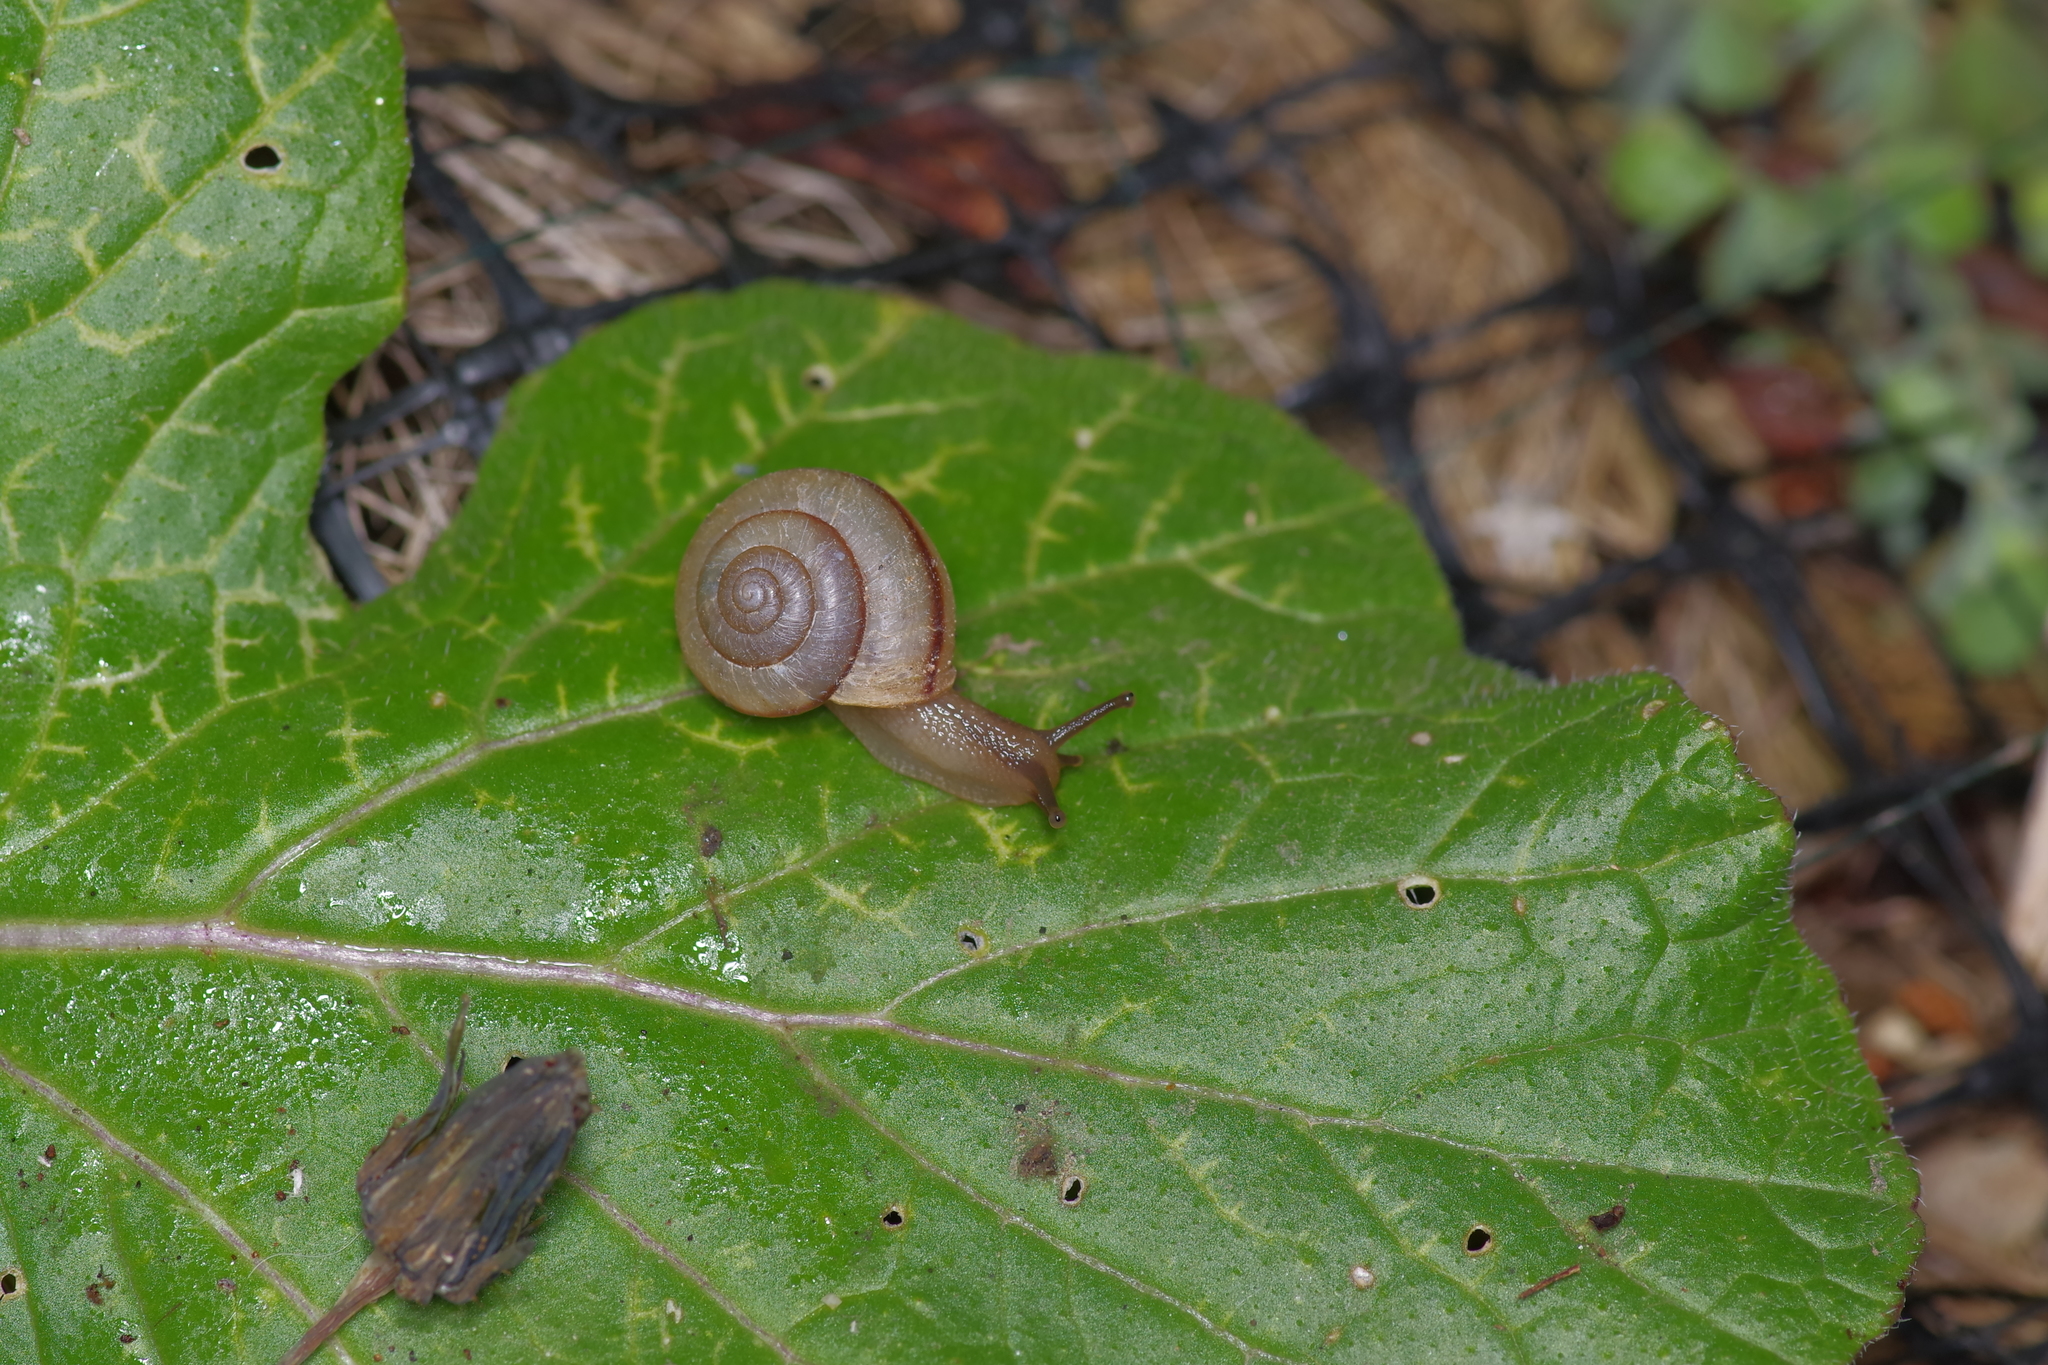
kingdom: Animalia
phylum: Mollusca
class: Gastropoda
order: Stylommatophora
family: Camaenidae
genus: Bradybaena
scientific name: Bradybaena similaris
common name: Asian trampsnail
